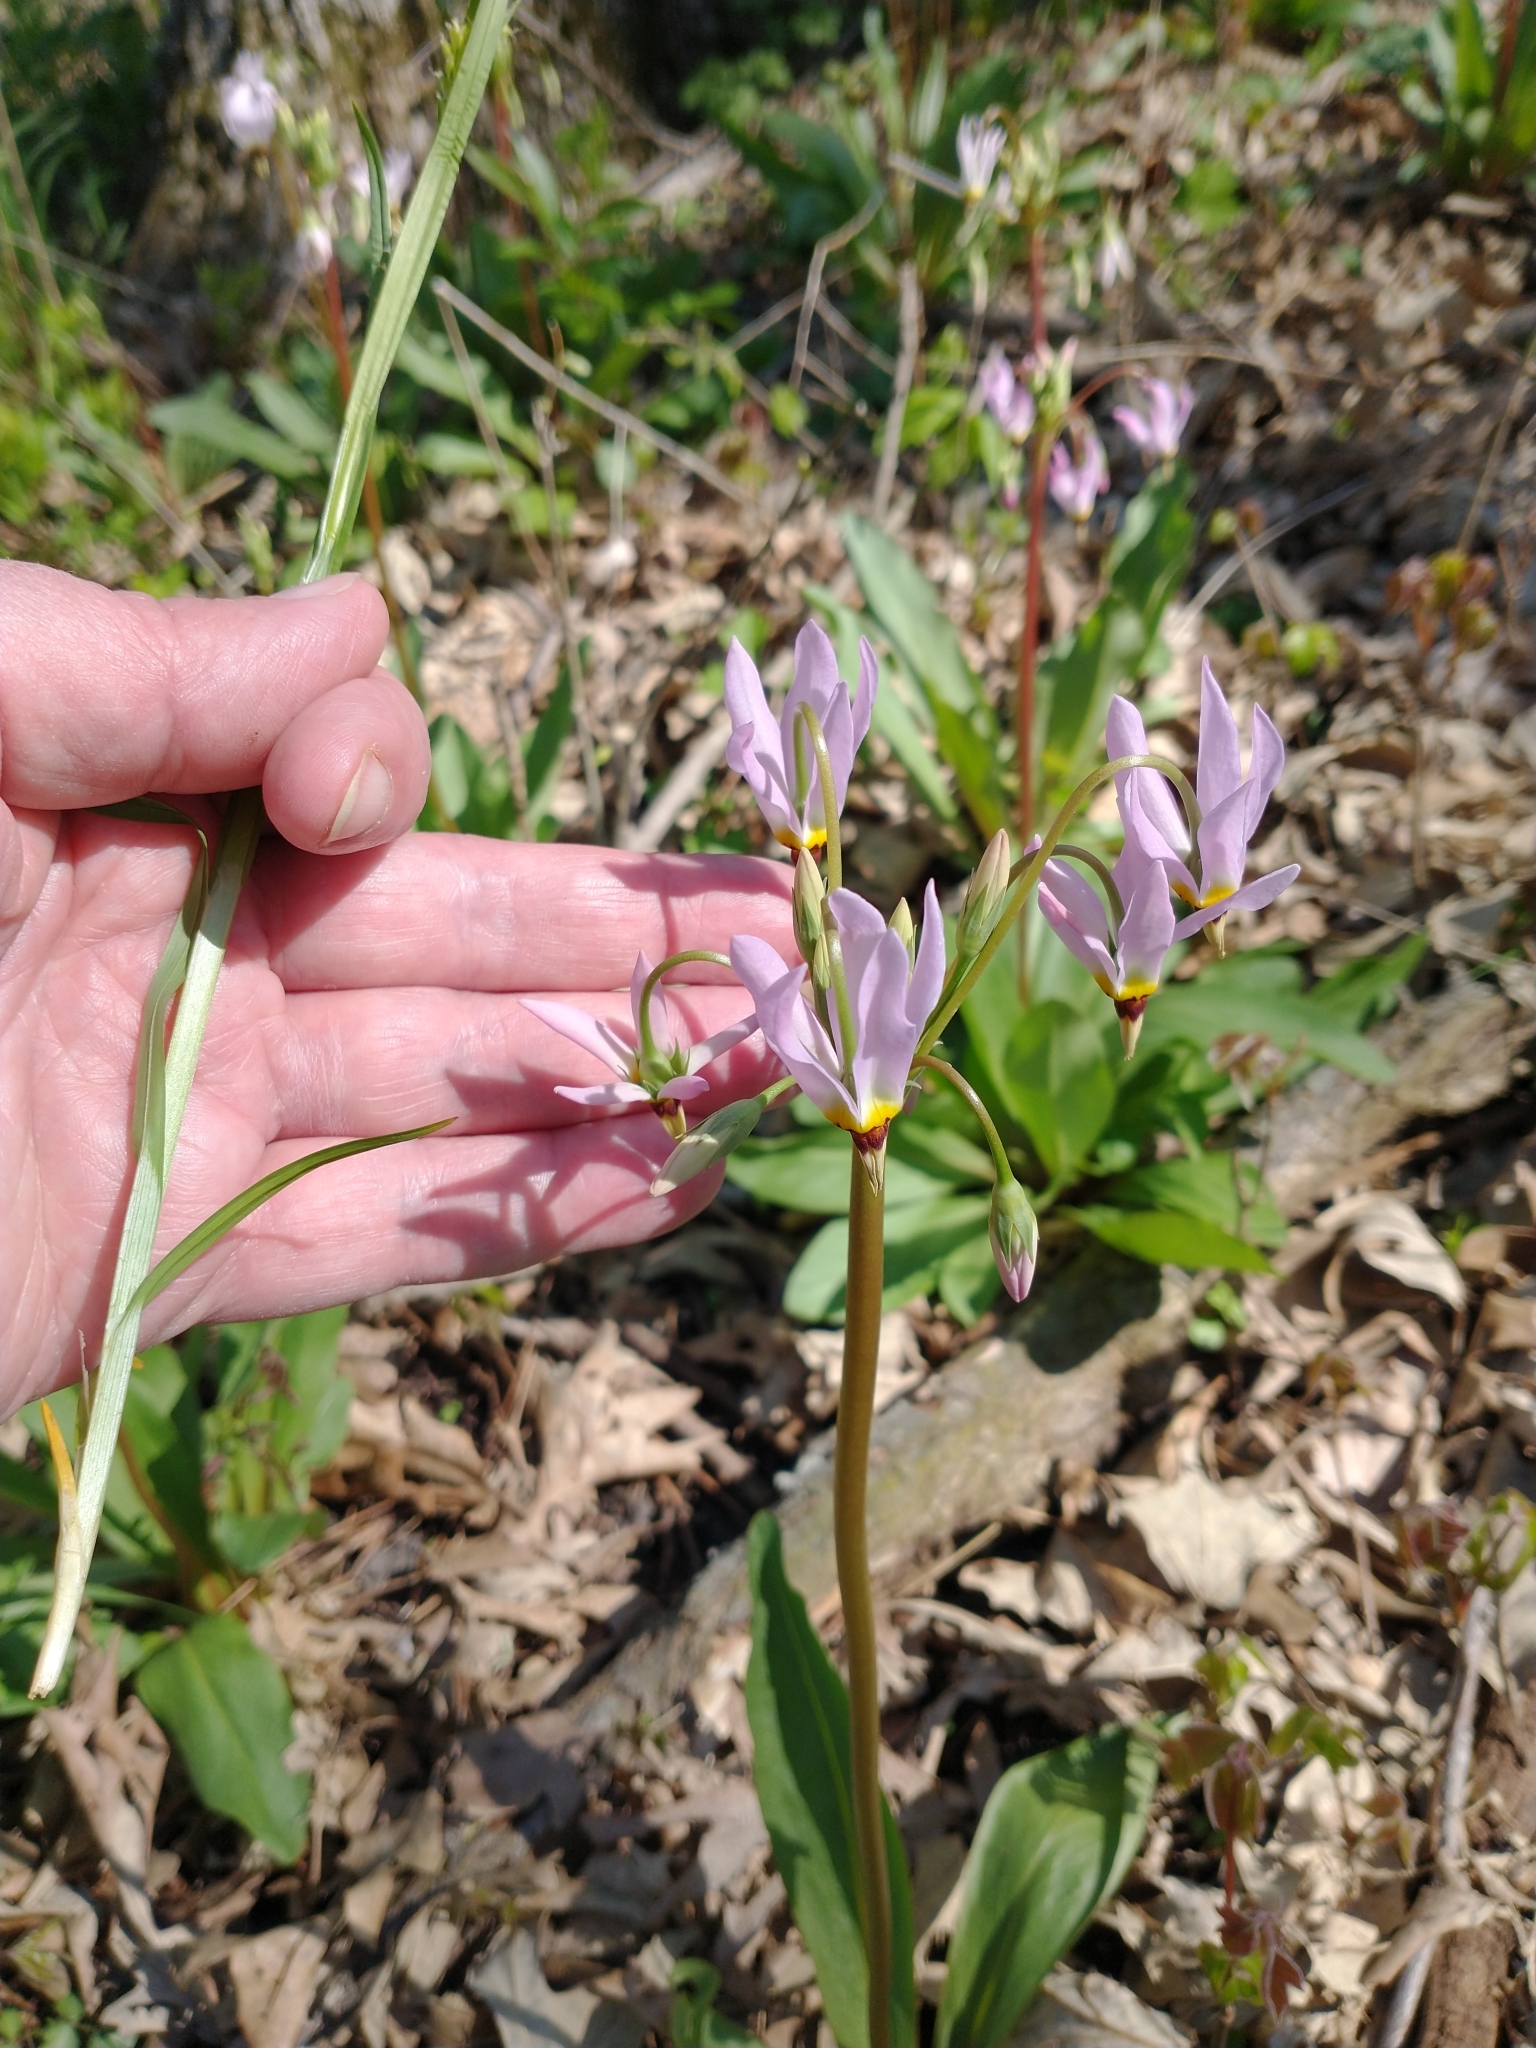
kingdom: Plantae
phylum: Tracheophyta
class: Magnoliopsida
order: Ericales
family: Primulaceae
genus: Dodecatheon
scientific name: Dodecatheon meadia
